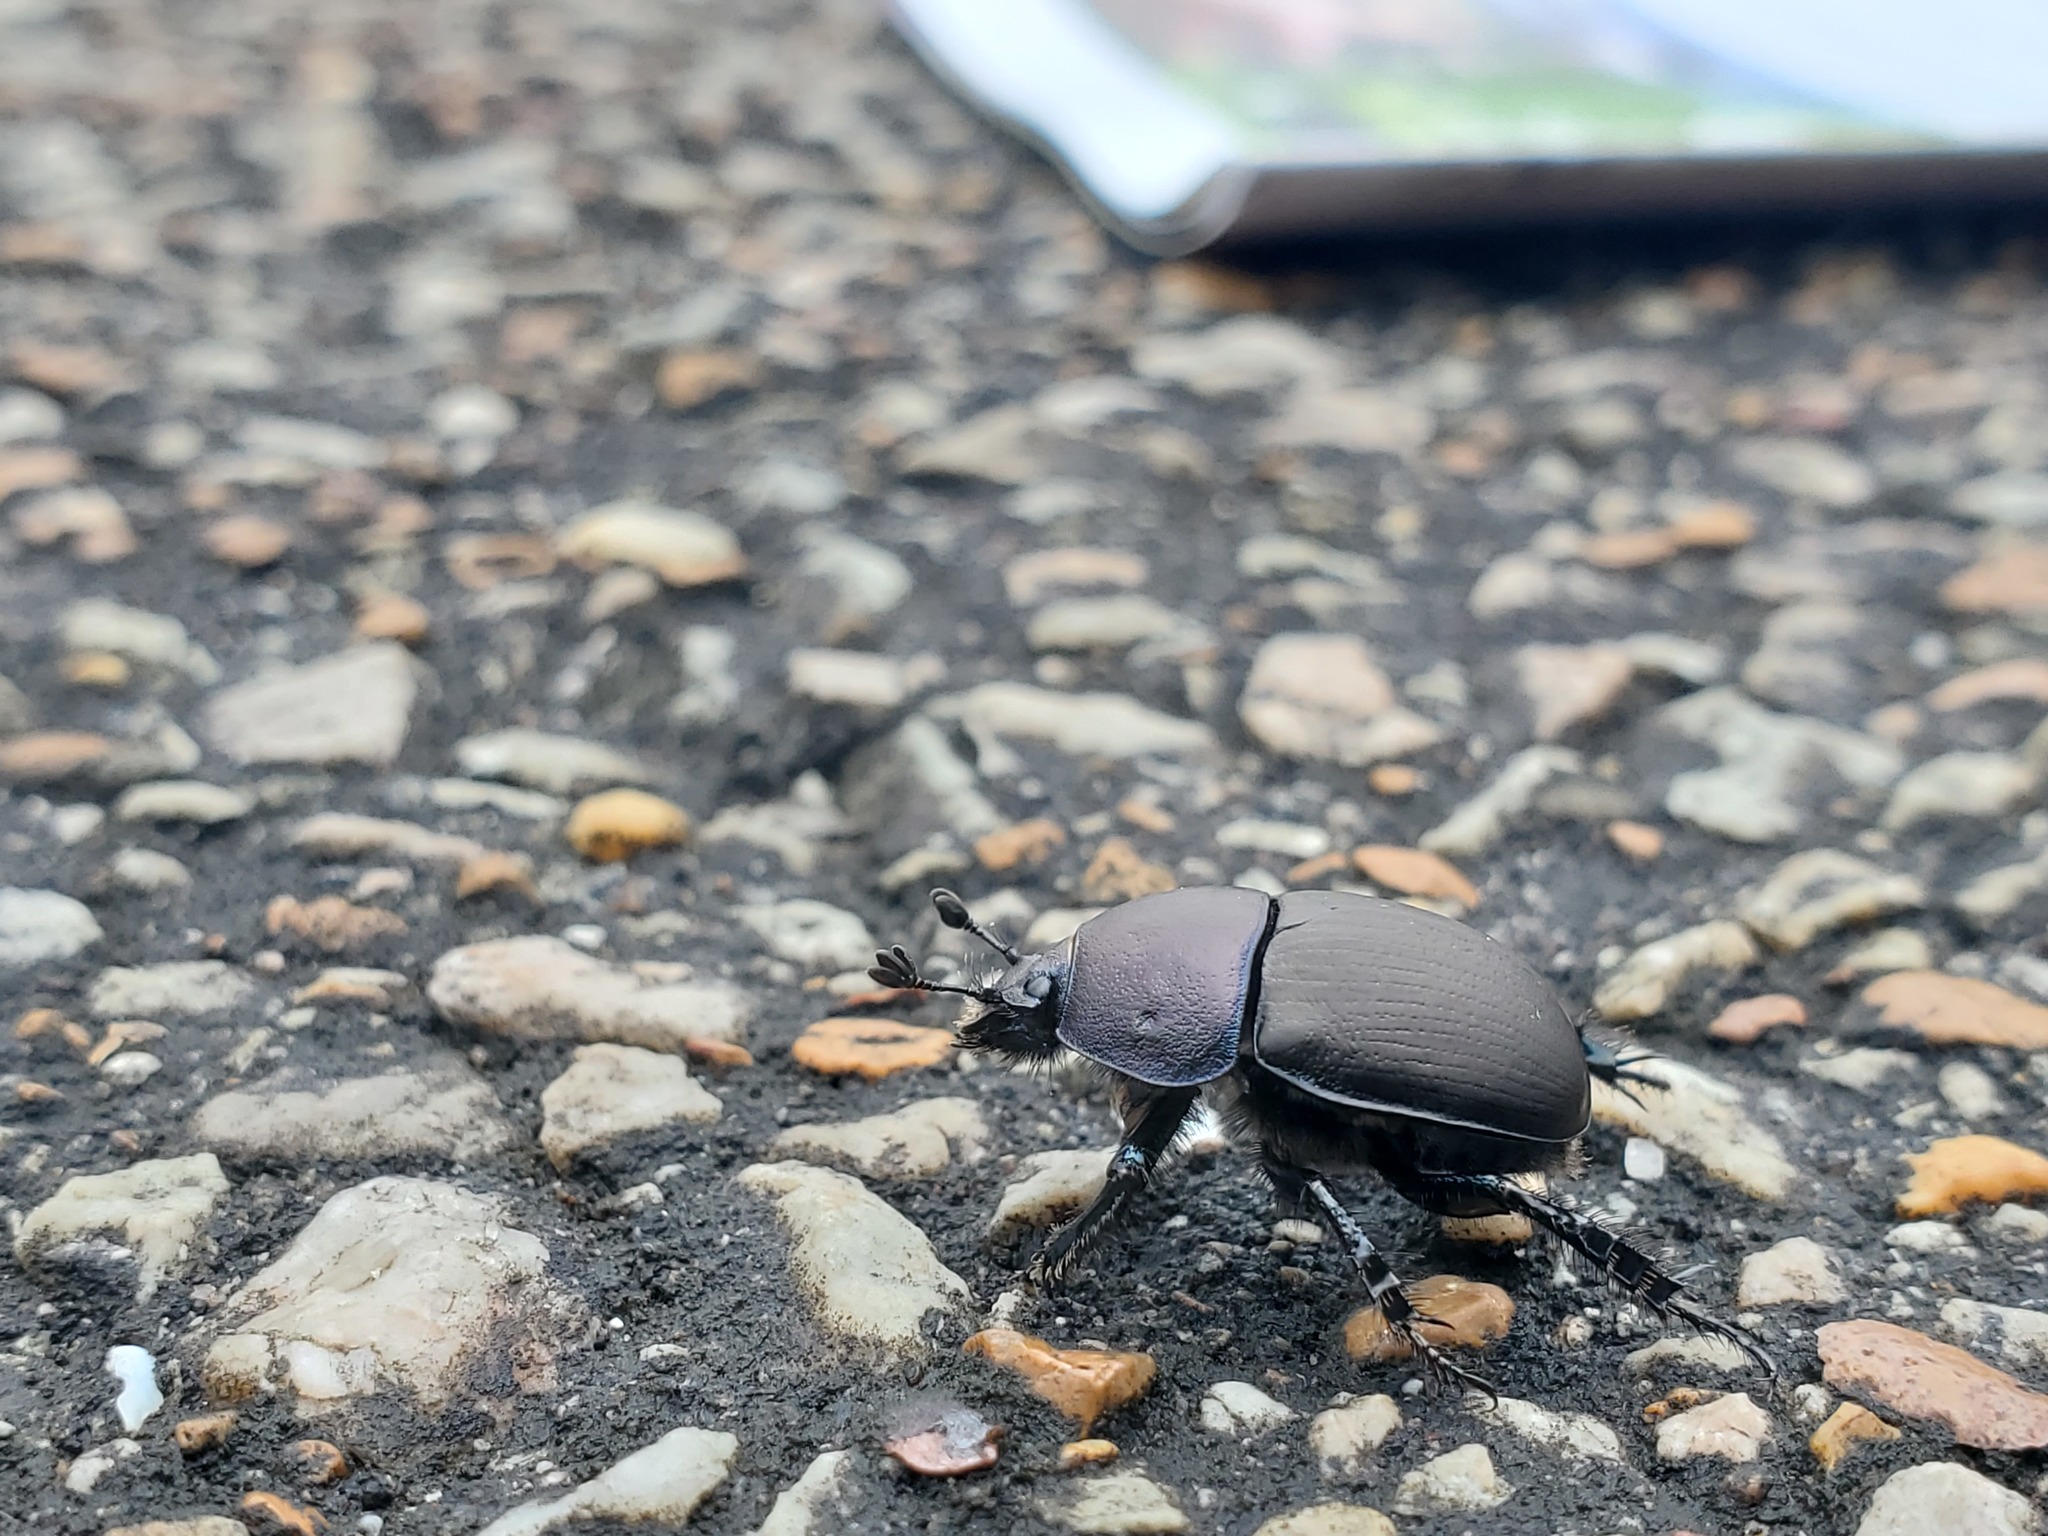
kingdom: Animalia
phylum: Arthropoda
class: Insecta
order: Coleoptera
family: Geotrupidae
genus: Geohowdenius
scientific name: Geohowdenius opacus
